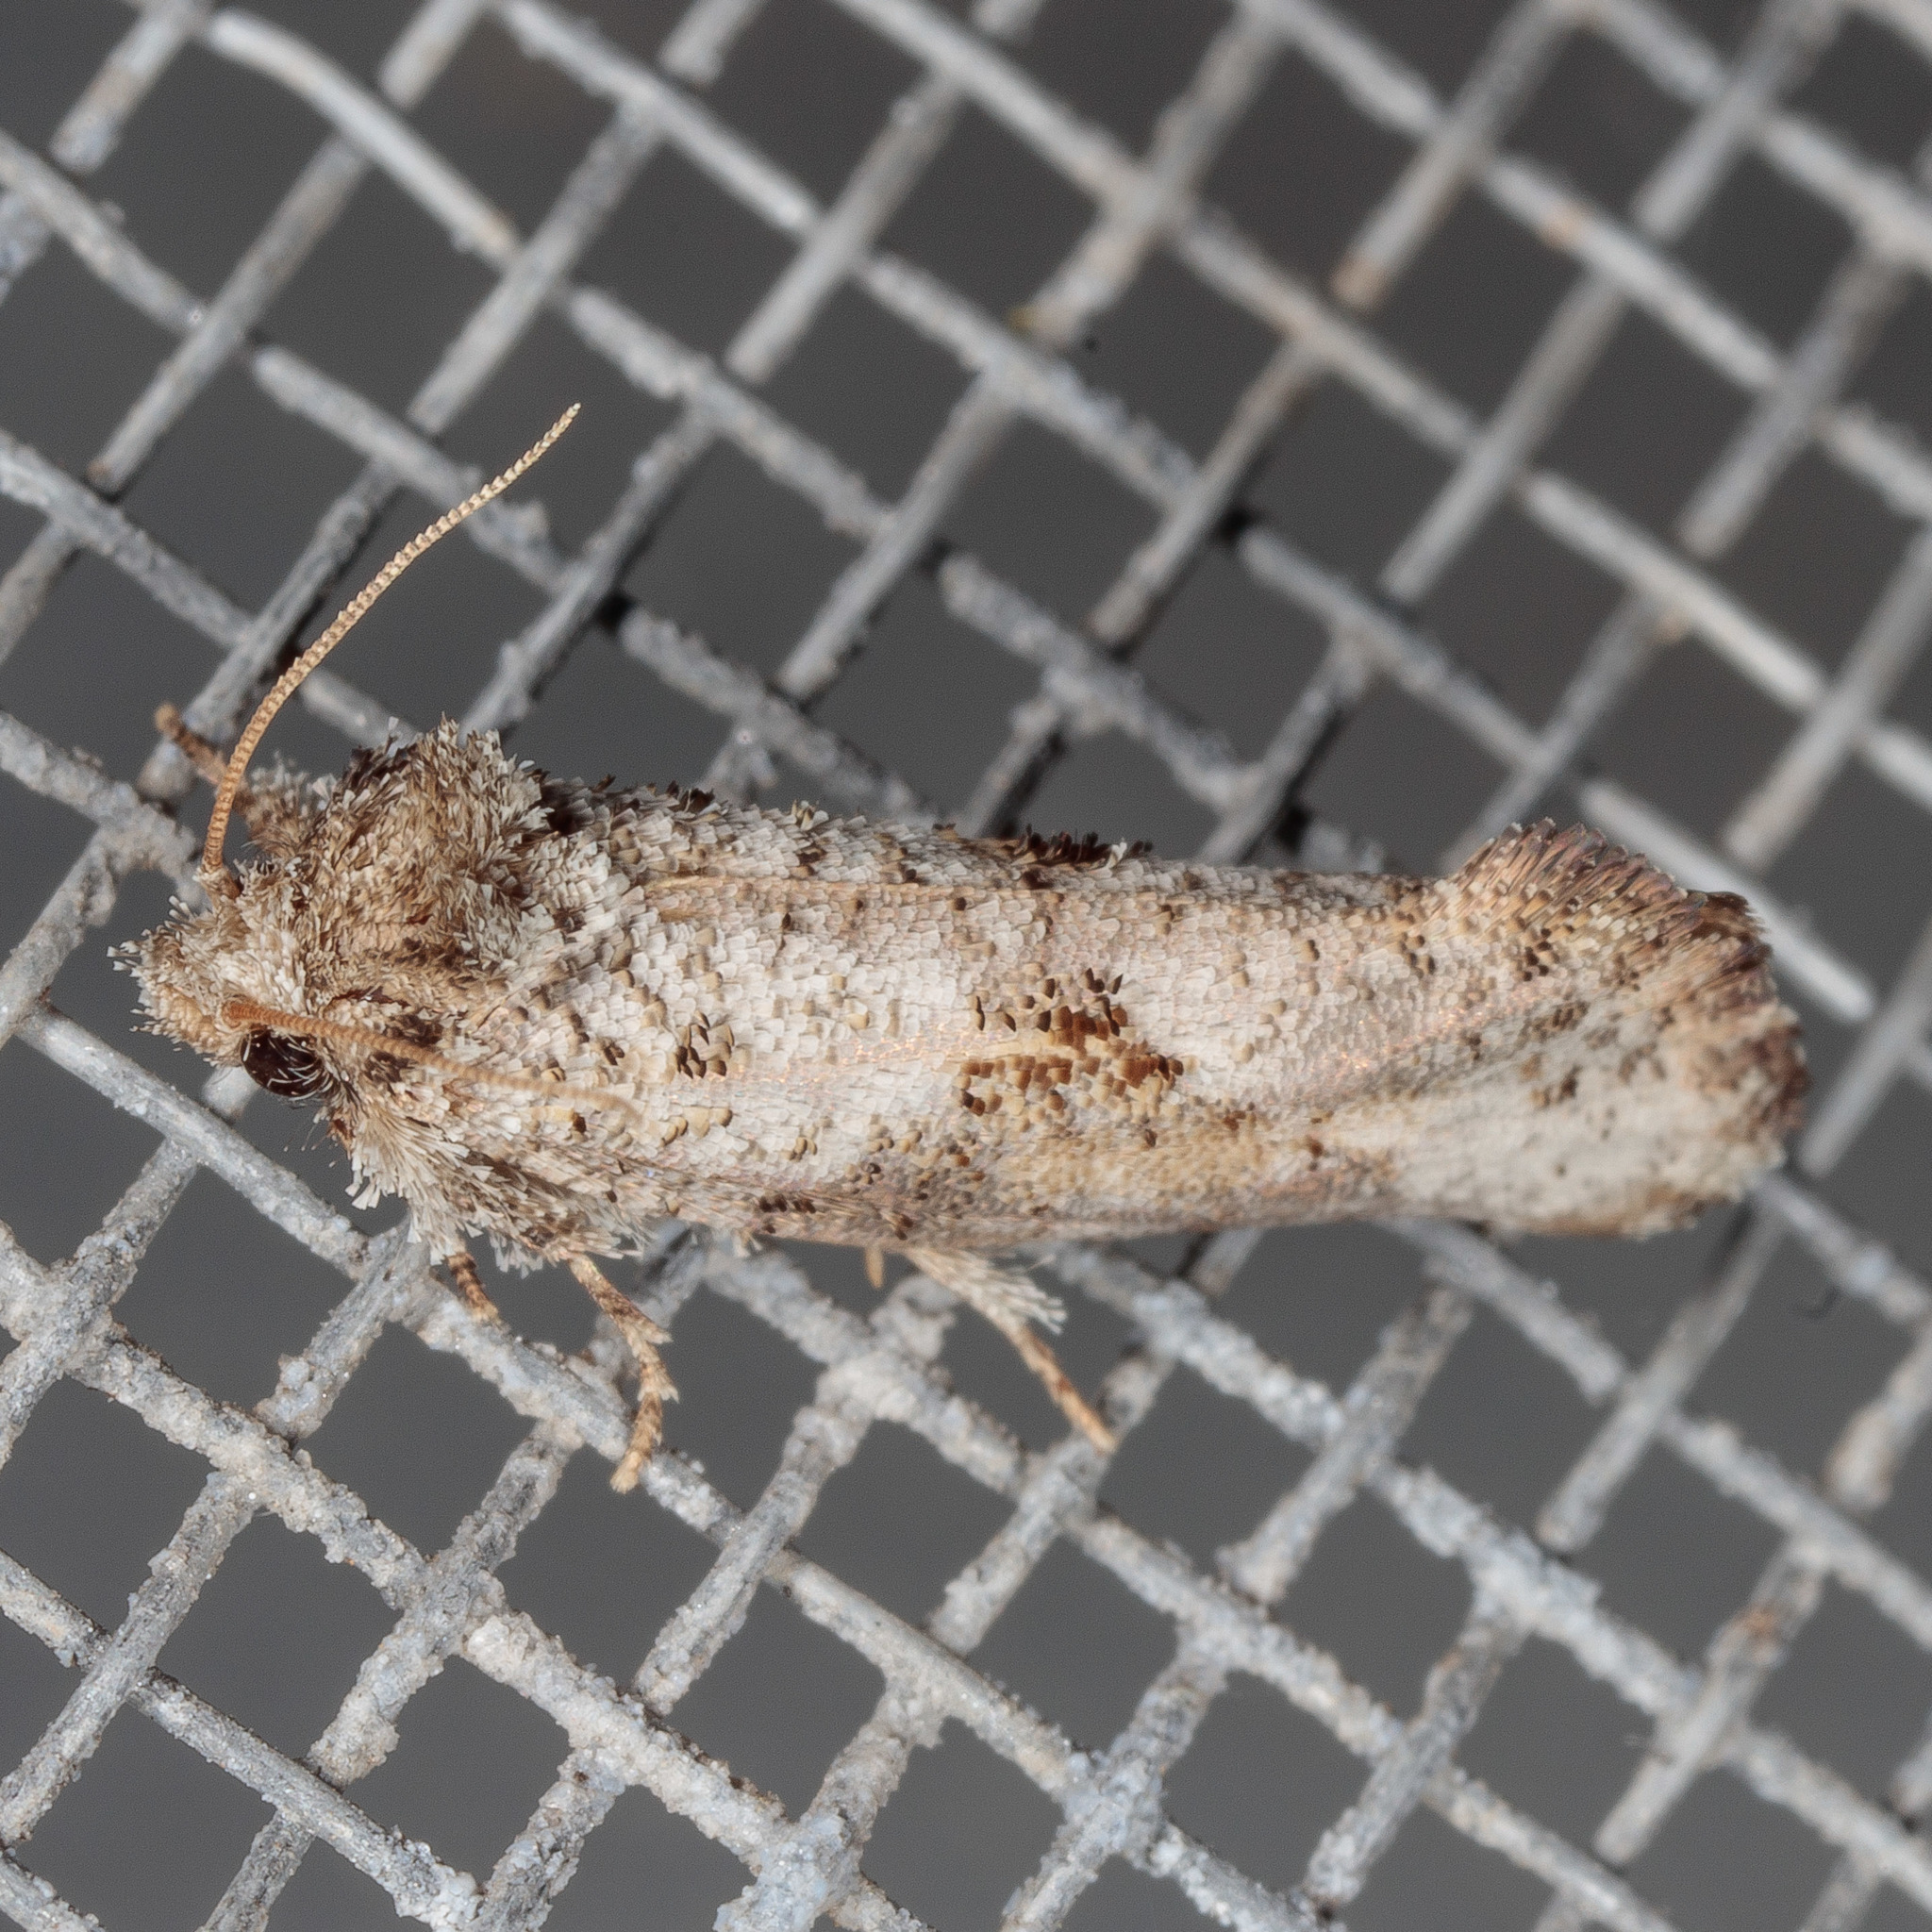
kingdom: Animalia
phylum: Arthropoda
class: Insecta
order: Lepidoptera
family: Tineidae
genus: Acrolophus
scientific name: Acrolophus piger
